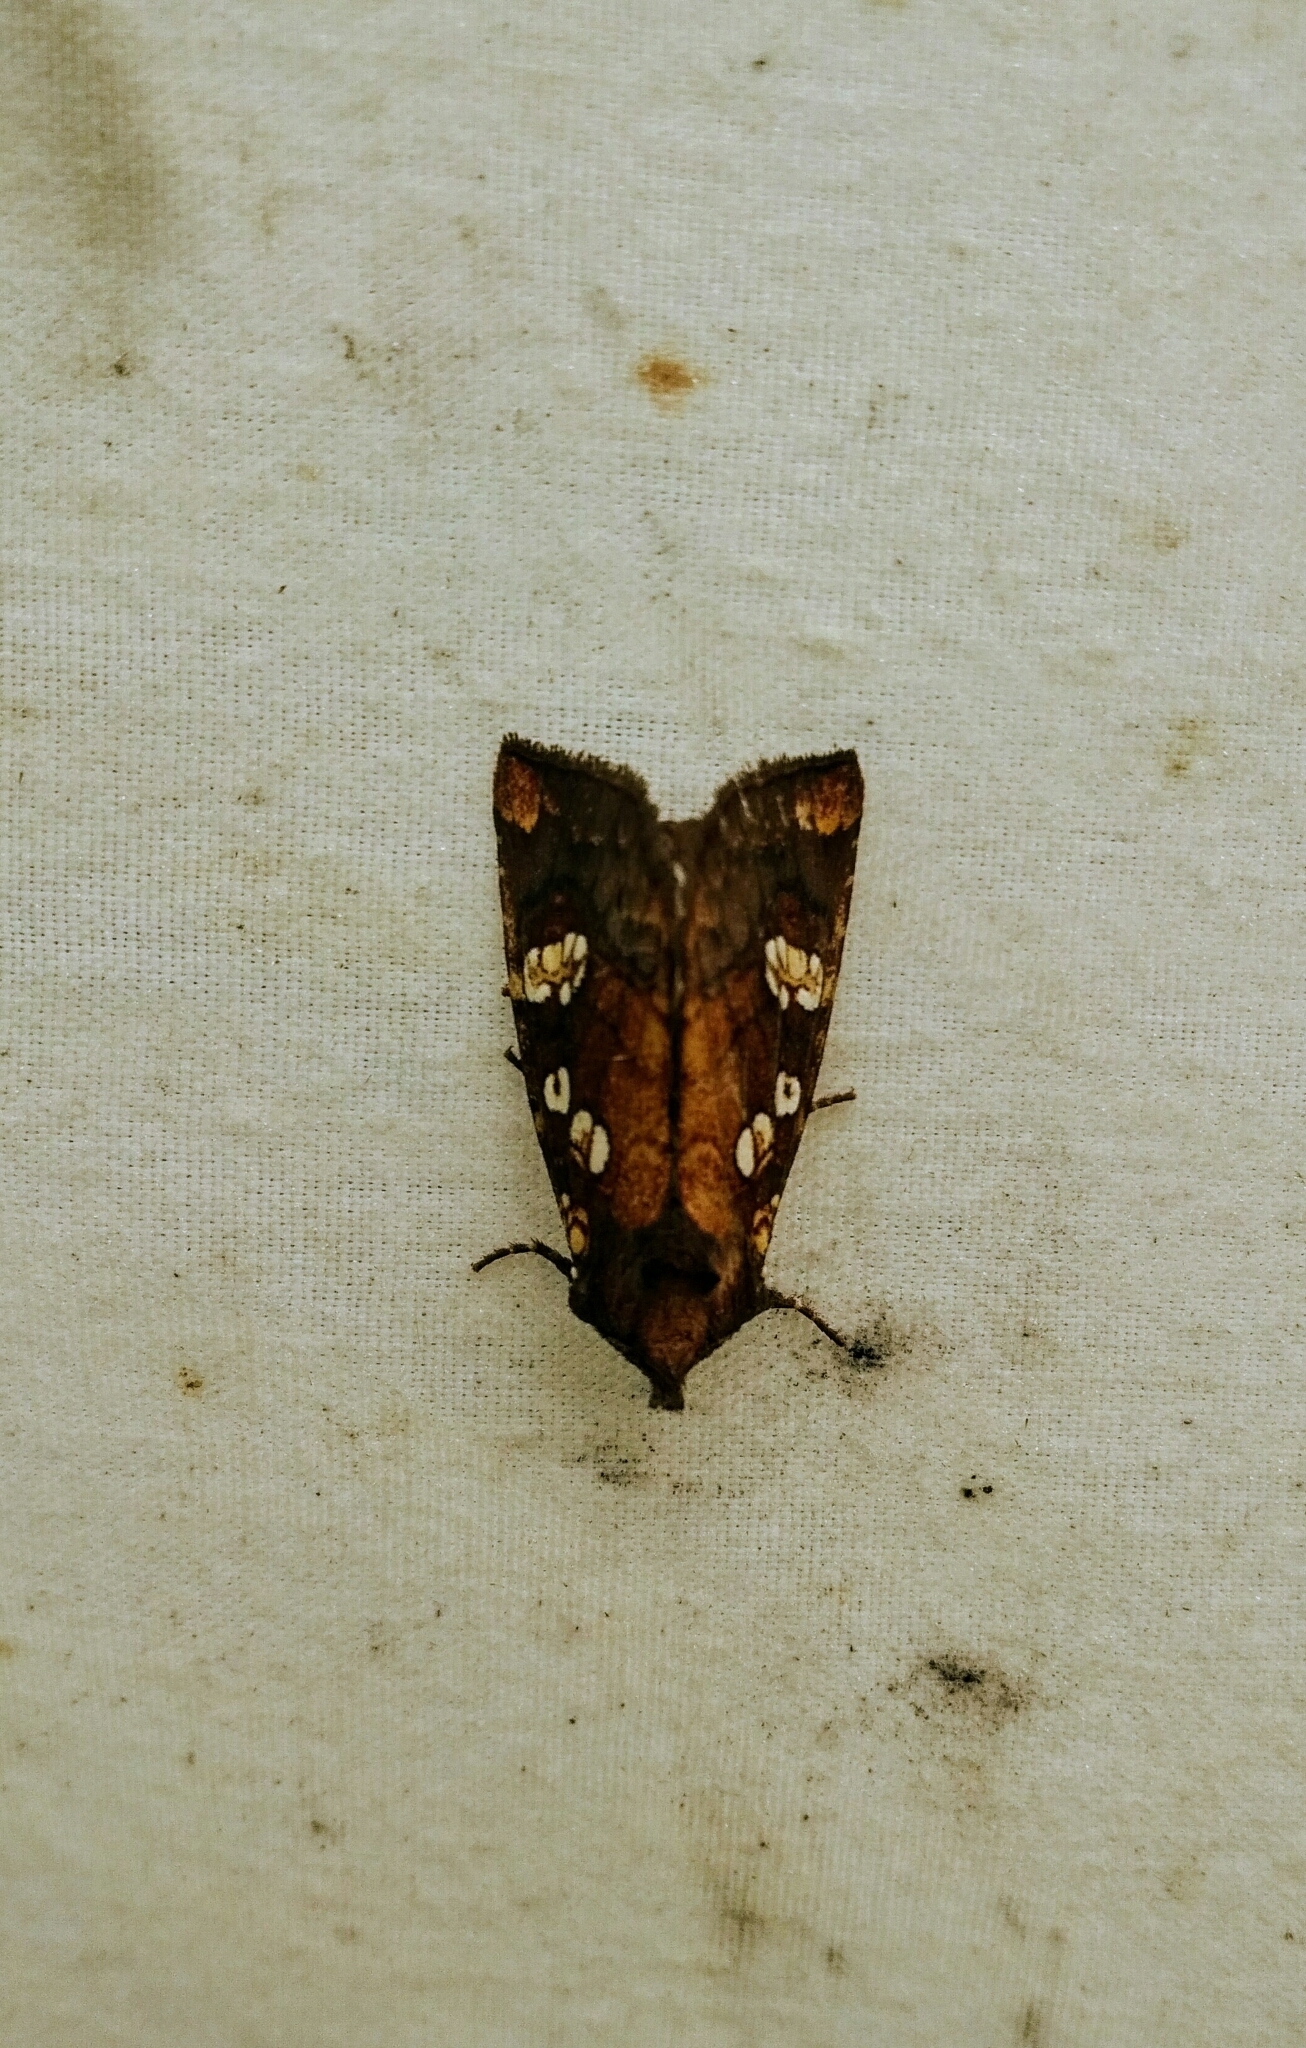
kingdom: Animalia
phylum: Arthropoda
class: Insecta
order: Lepidoptera
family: Noctuidae
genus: Papaipema
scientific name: Papaipema insulidens
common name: Ragwort stem borer moth
